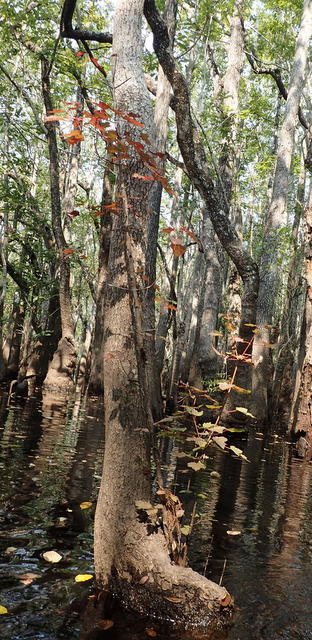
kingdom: Plantae
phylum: Tracheophyta
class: Magnoliopsida
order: Sapindales
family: Sapindaceae
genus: Acer
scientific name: Acer rubrum
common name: Red maple
